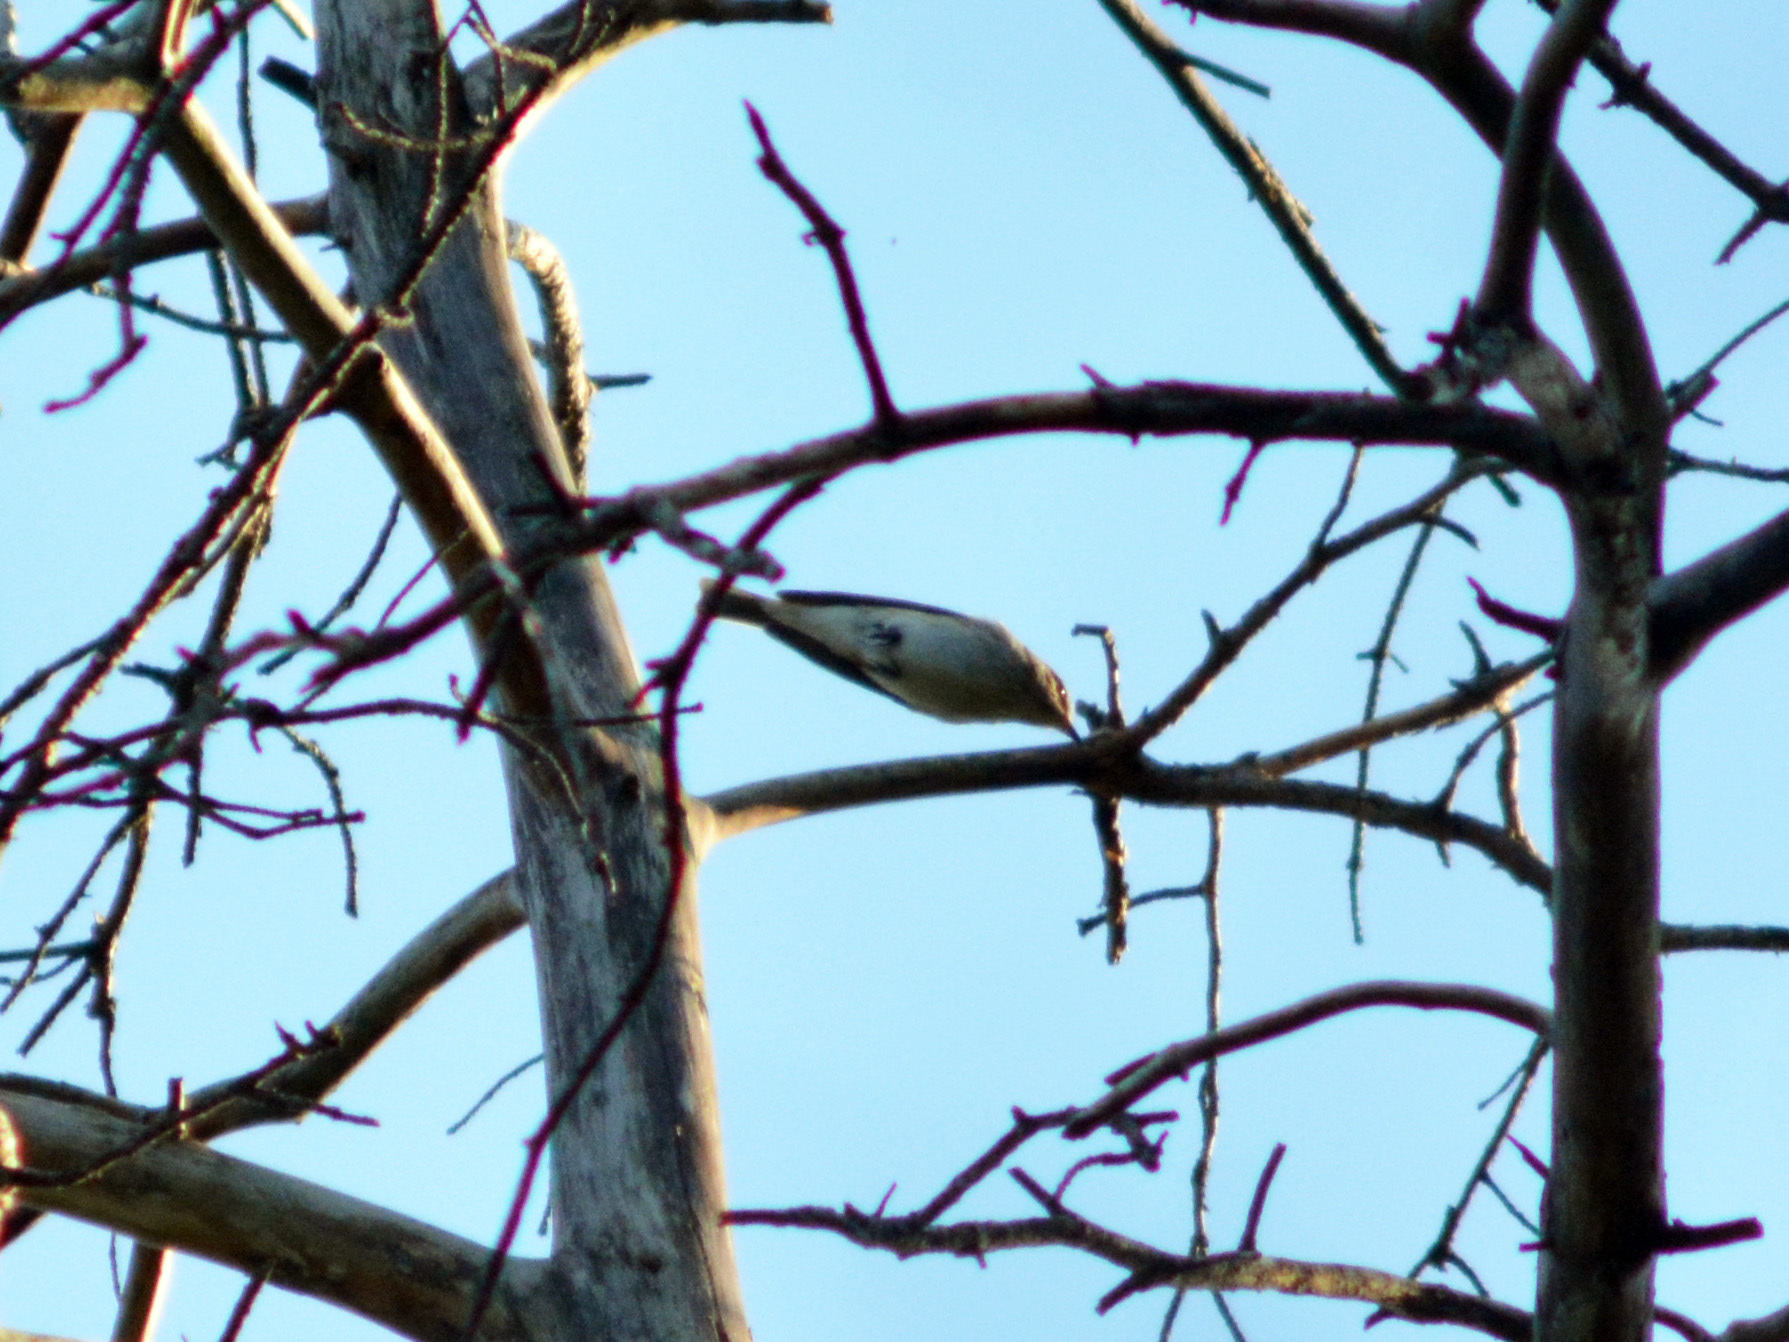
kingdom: Animalia
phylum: Chordata
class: Aves
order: Passeriformes
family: Muscicapidae
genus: Muscicapa
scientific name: Muscicapa striata
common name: Spotted flycatcher
